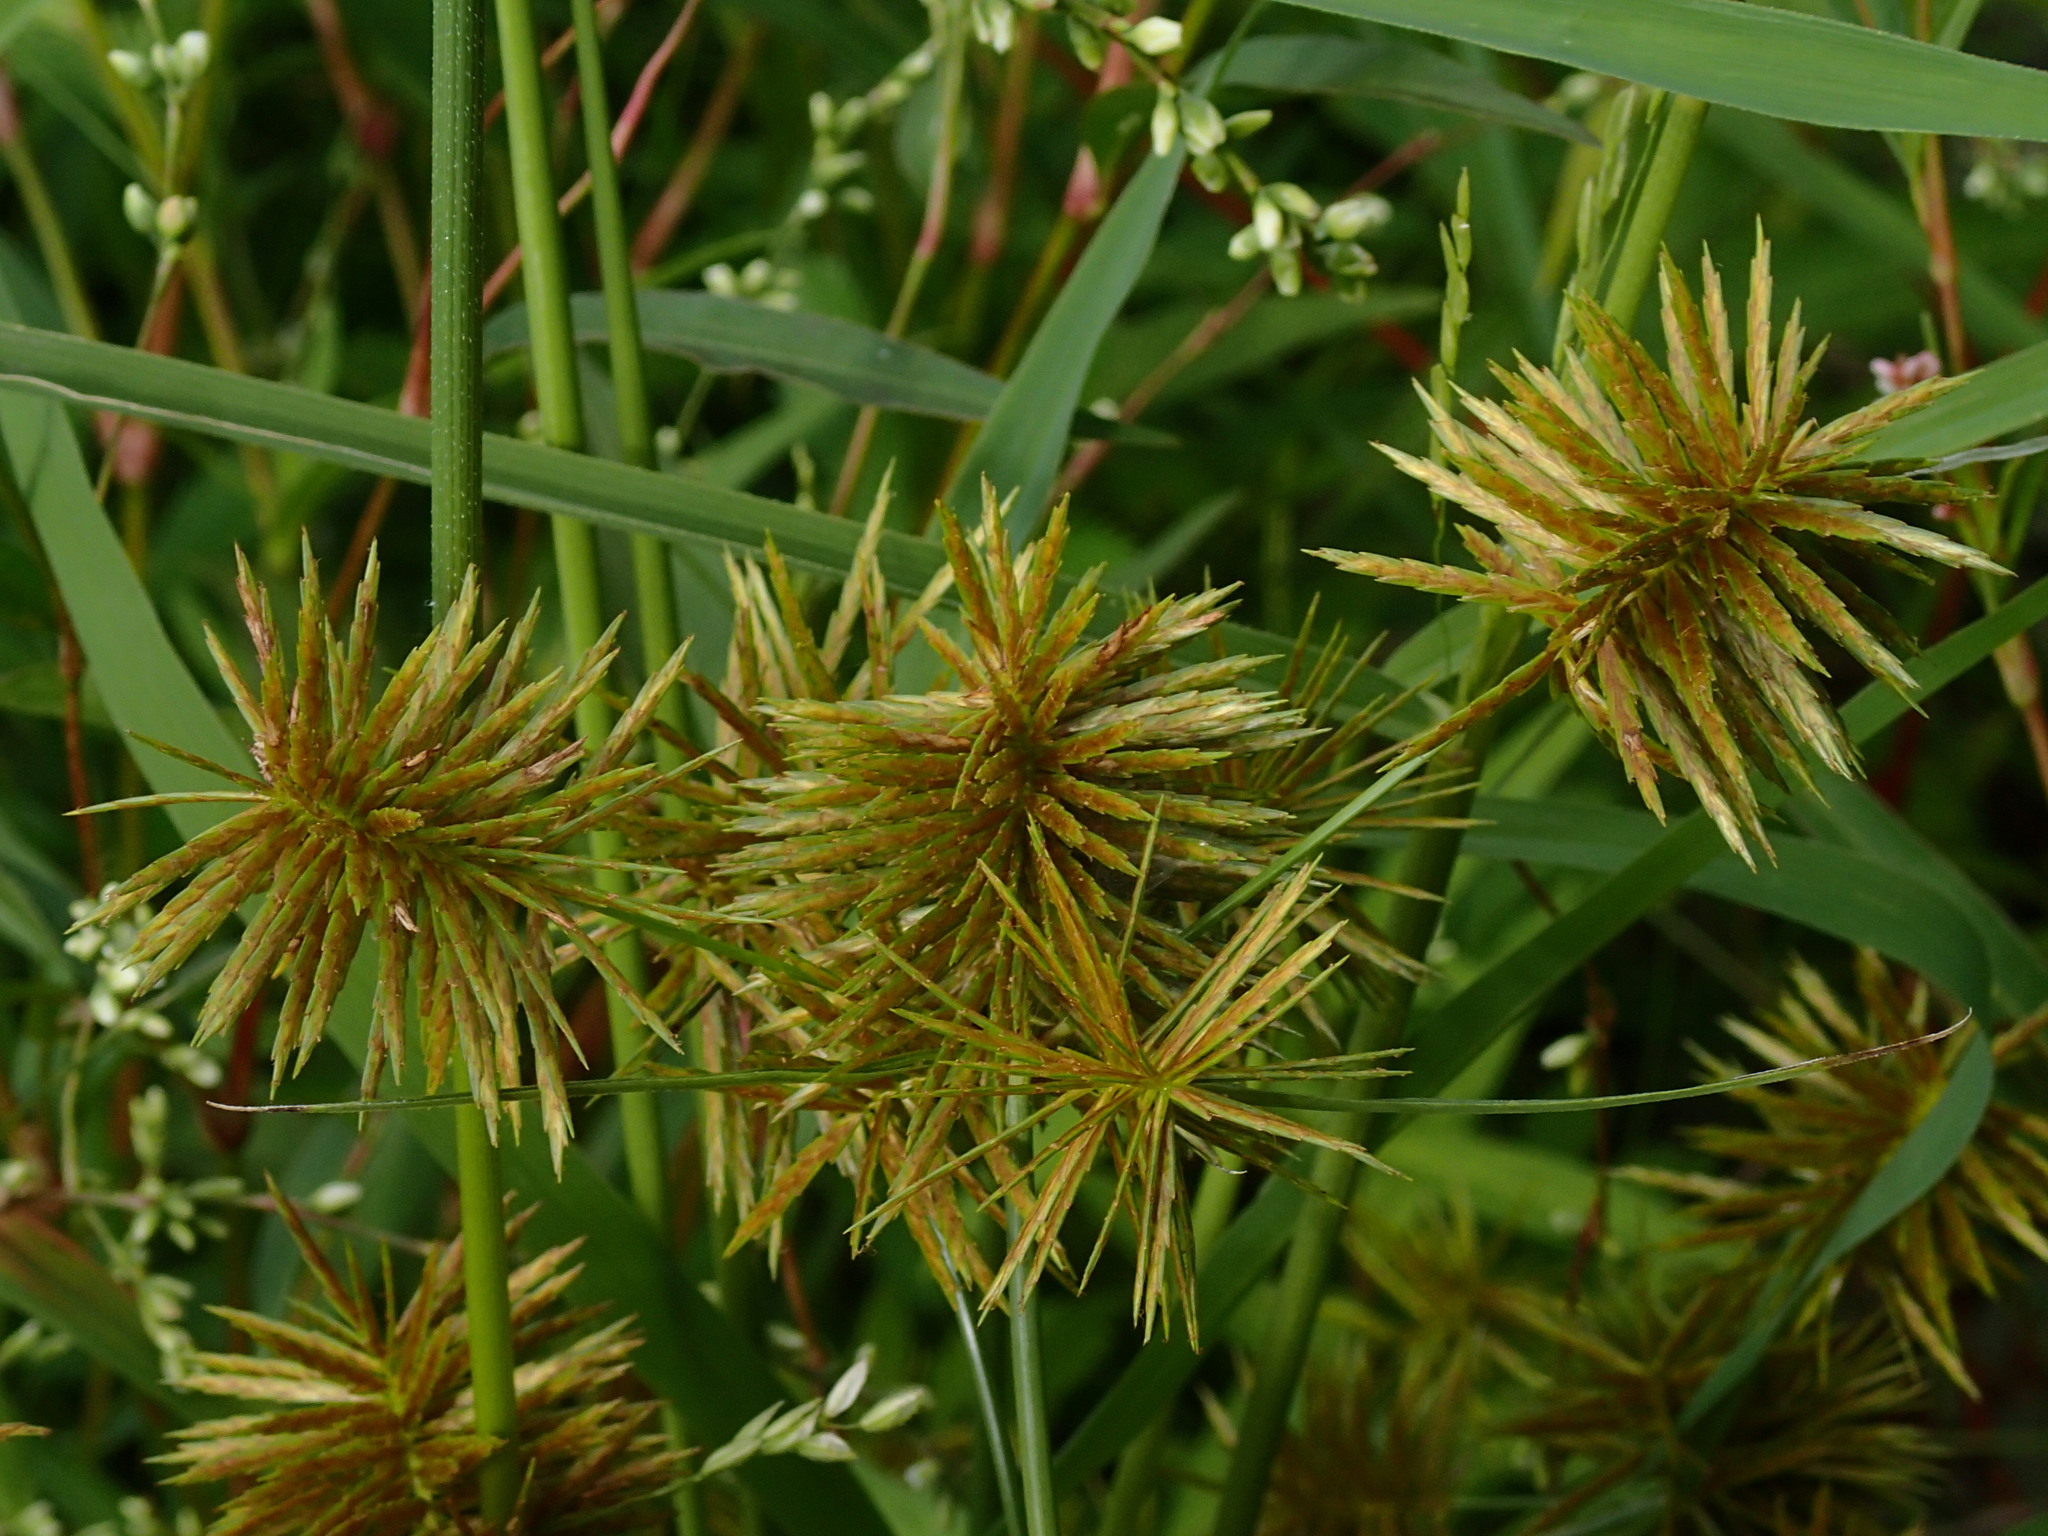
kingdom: Plantae
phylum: Tracheophyta
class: Liliopsida
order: Poales
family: Cyperaceae
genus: Cyperus
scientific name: Cyperus strigosus
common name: False nutsedge
